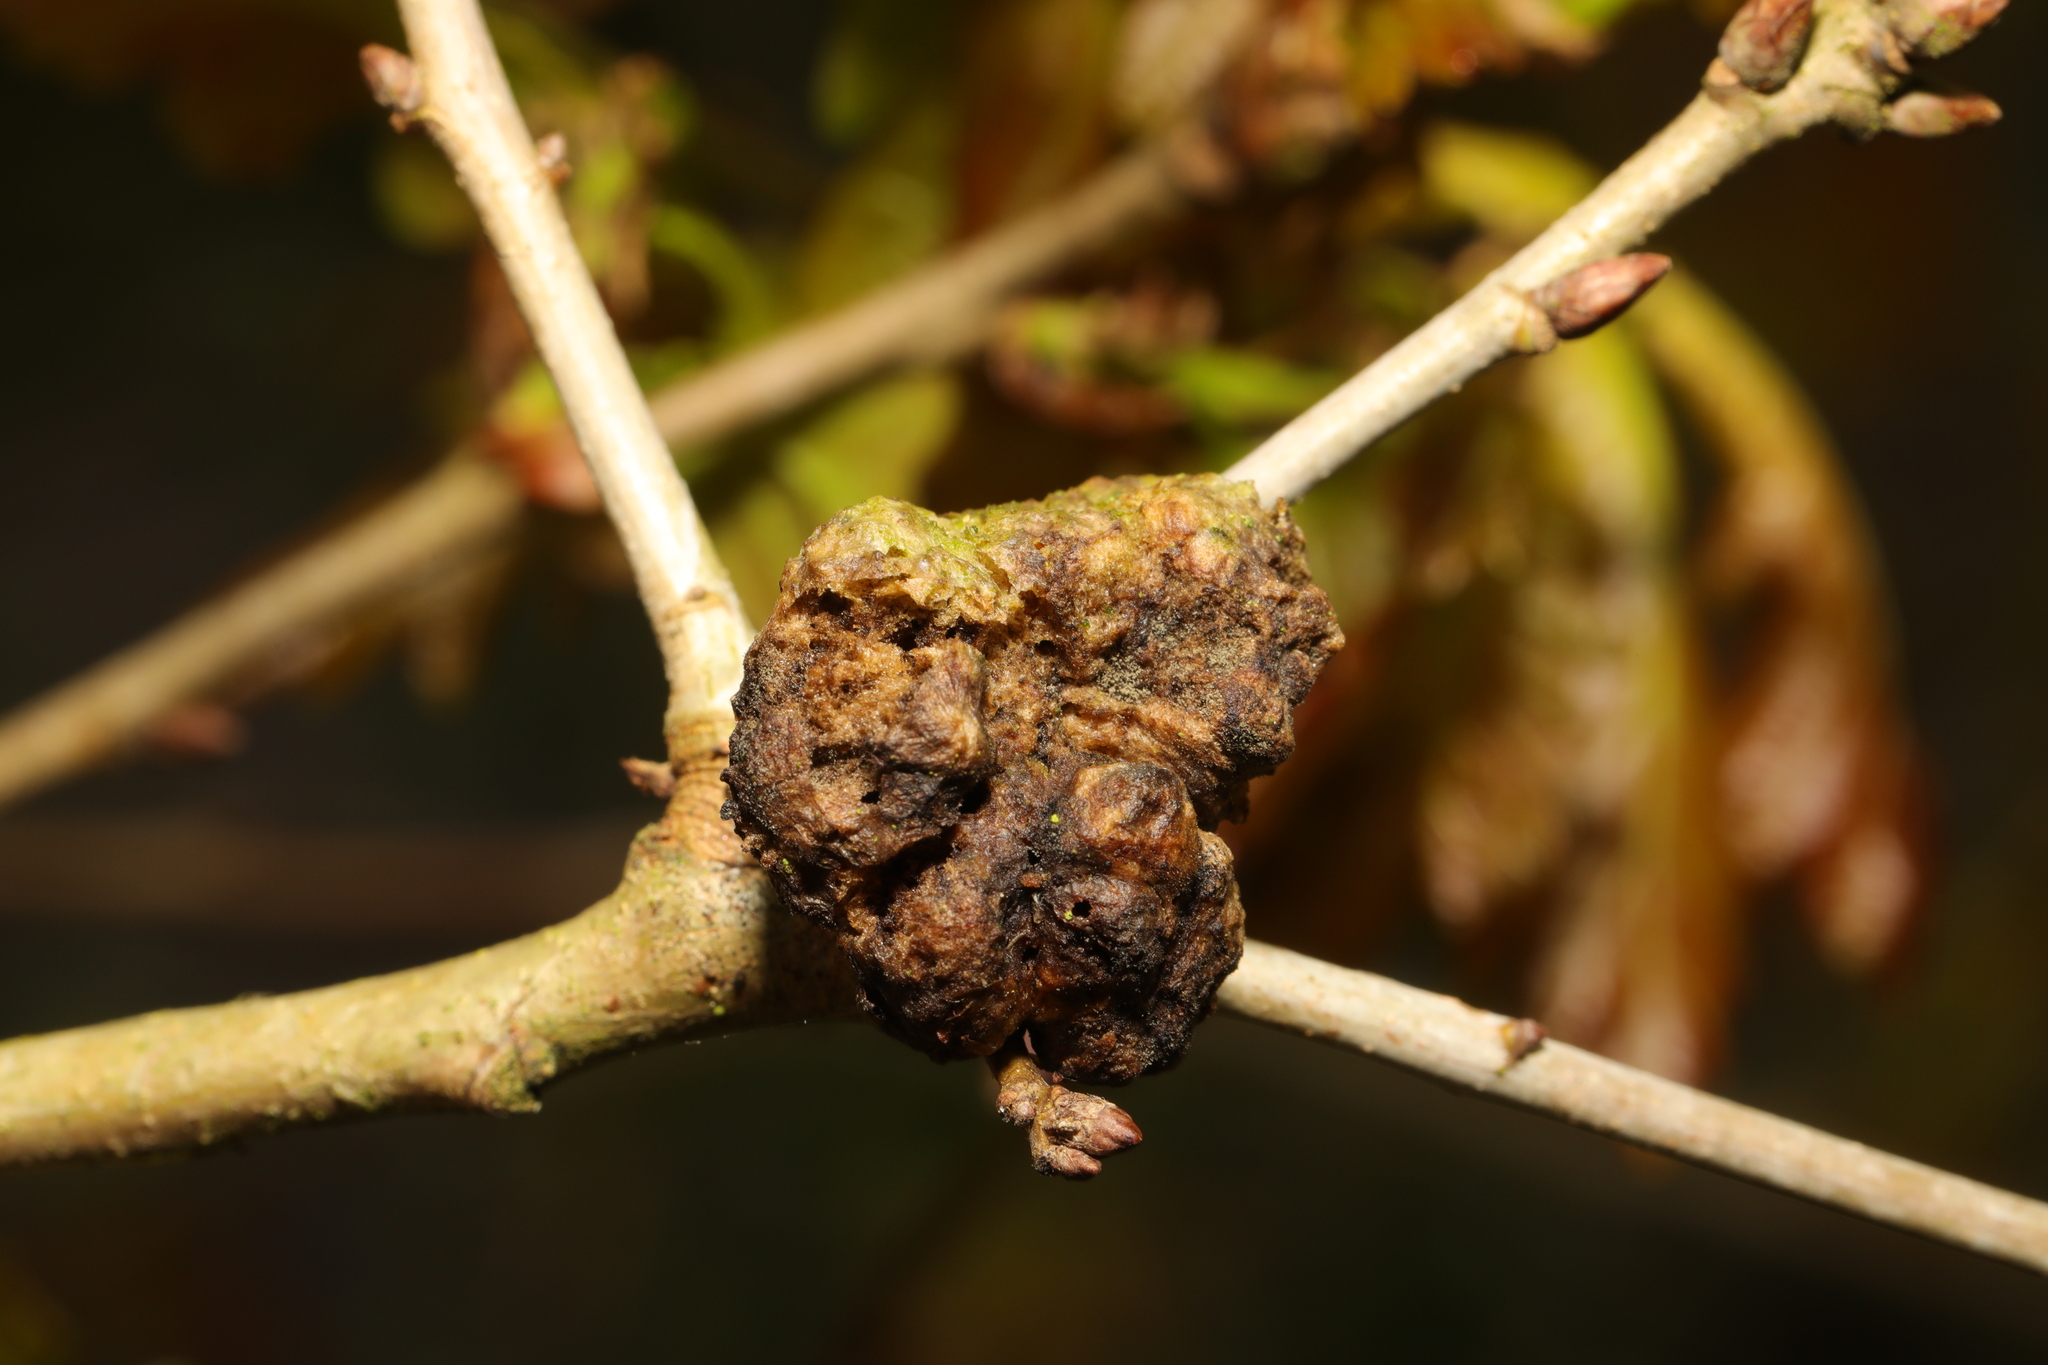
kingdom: Animalia
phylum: Arthropoda
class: Insecta
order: Hymenoptera
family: Cynipidae
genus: Biorhiza
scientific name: Biorhiza pallida
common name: Oak apple
